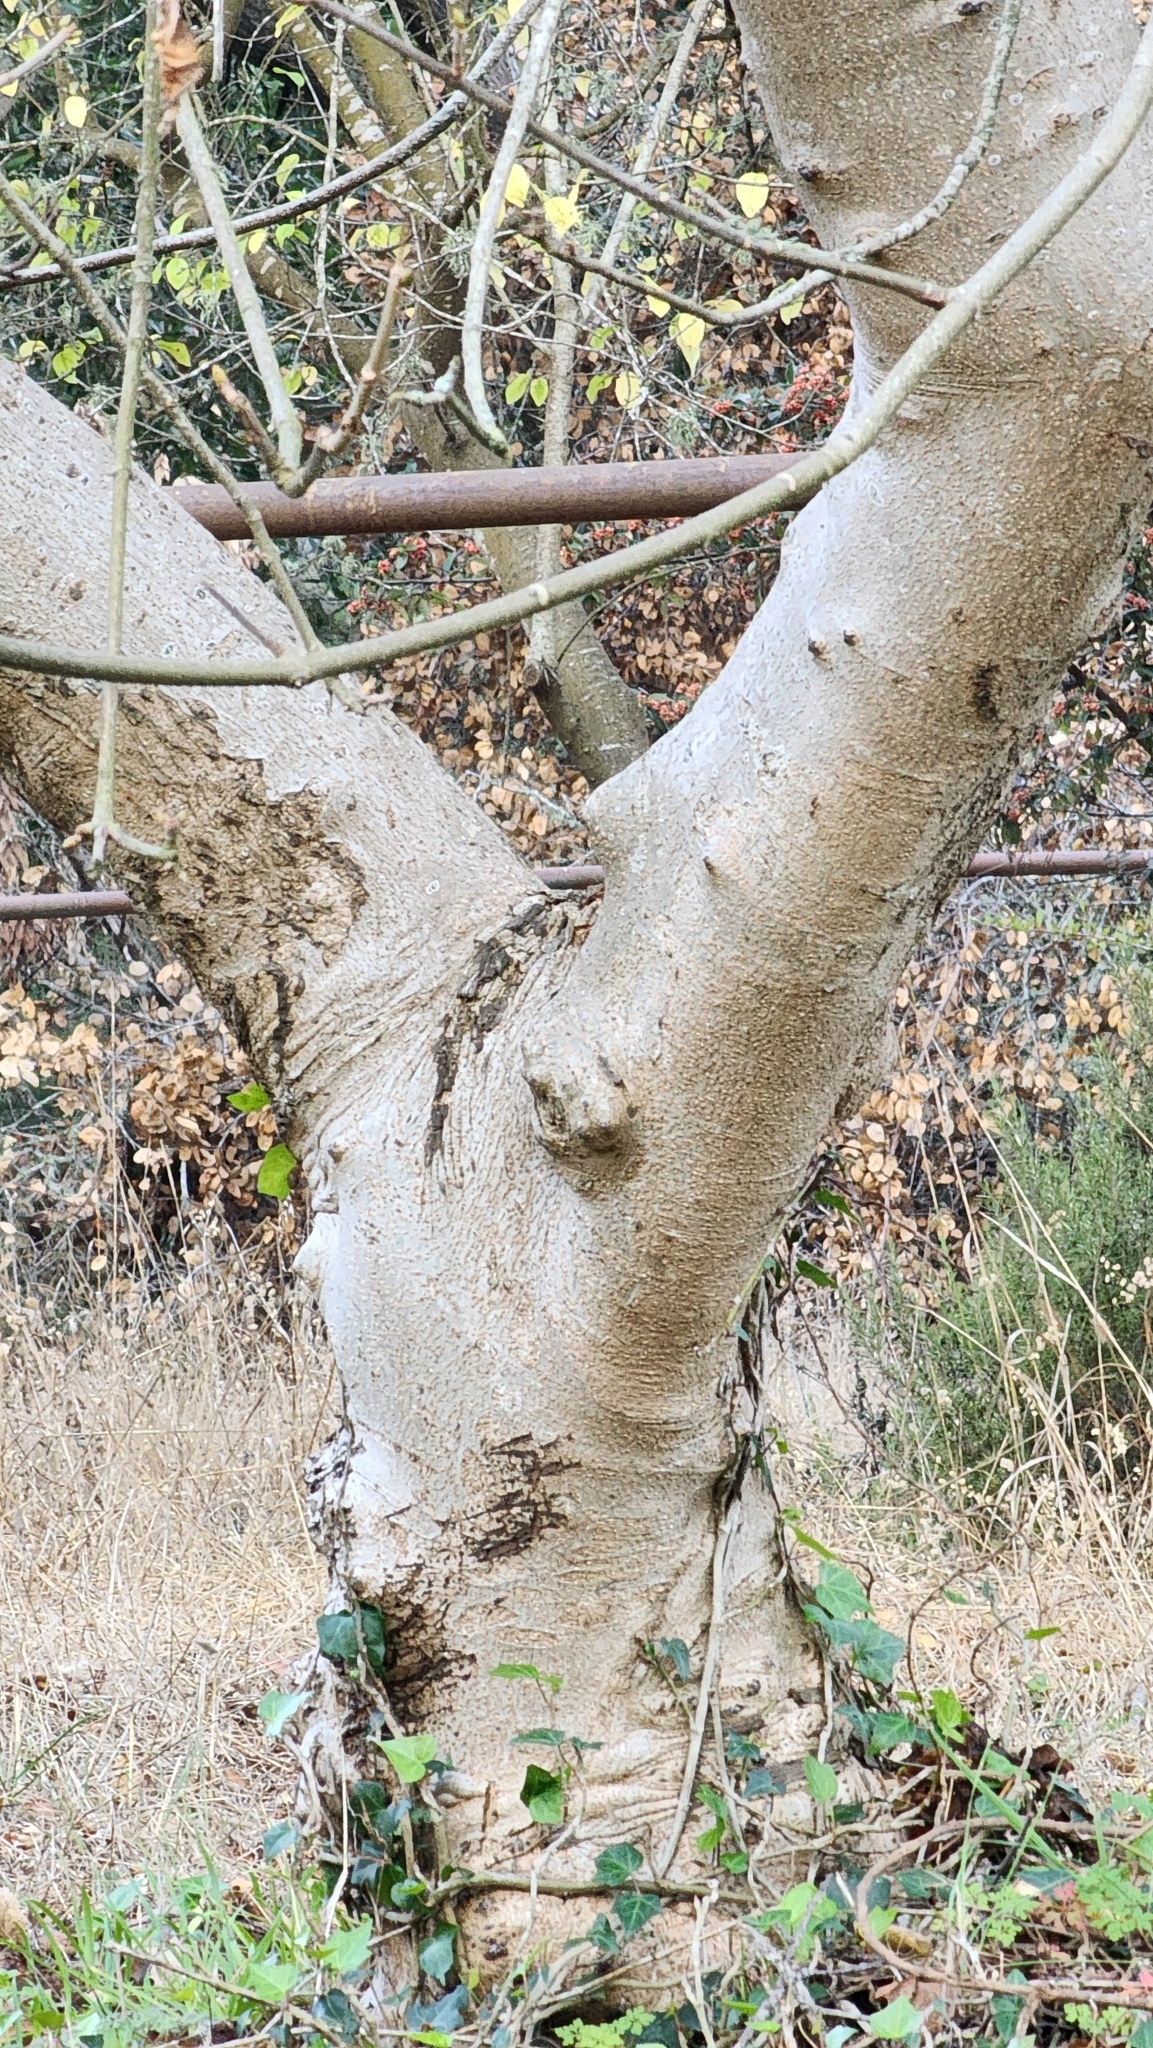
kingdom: Plantae
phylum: Tracheophyta
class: Magnoliopsida
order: Sapindales
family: Sapindaceae
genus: Aesculus
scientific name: Aesculus californica
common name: California buckeye
